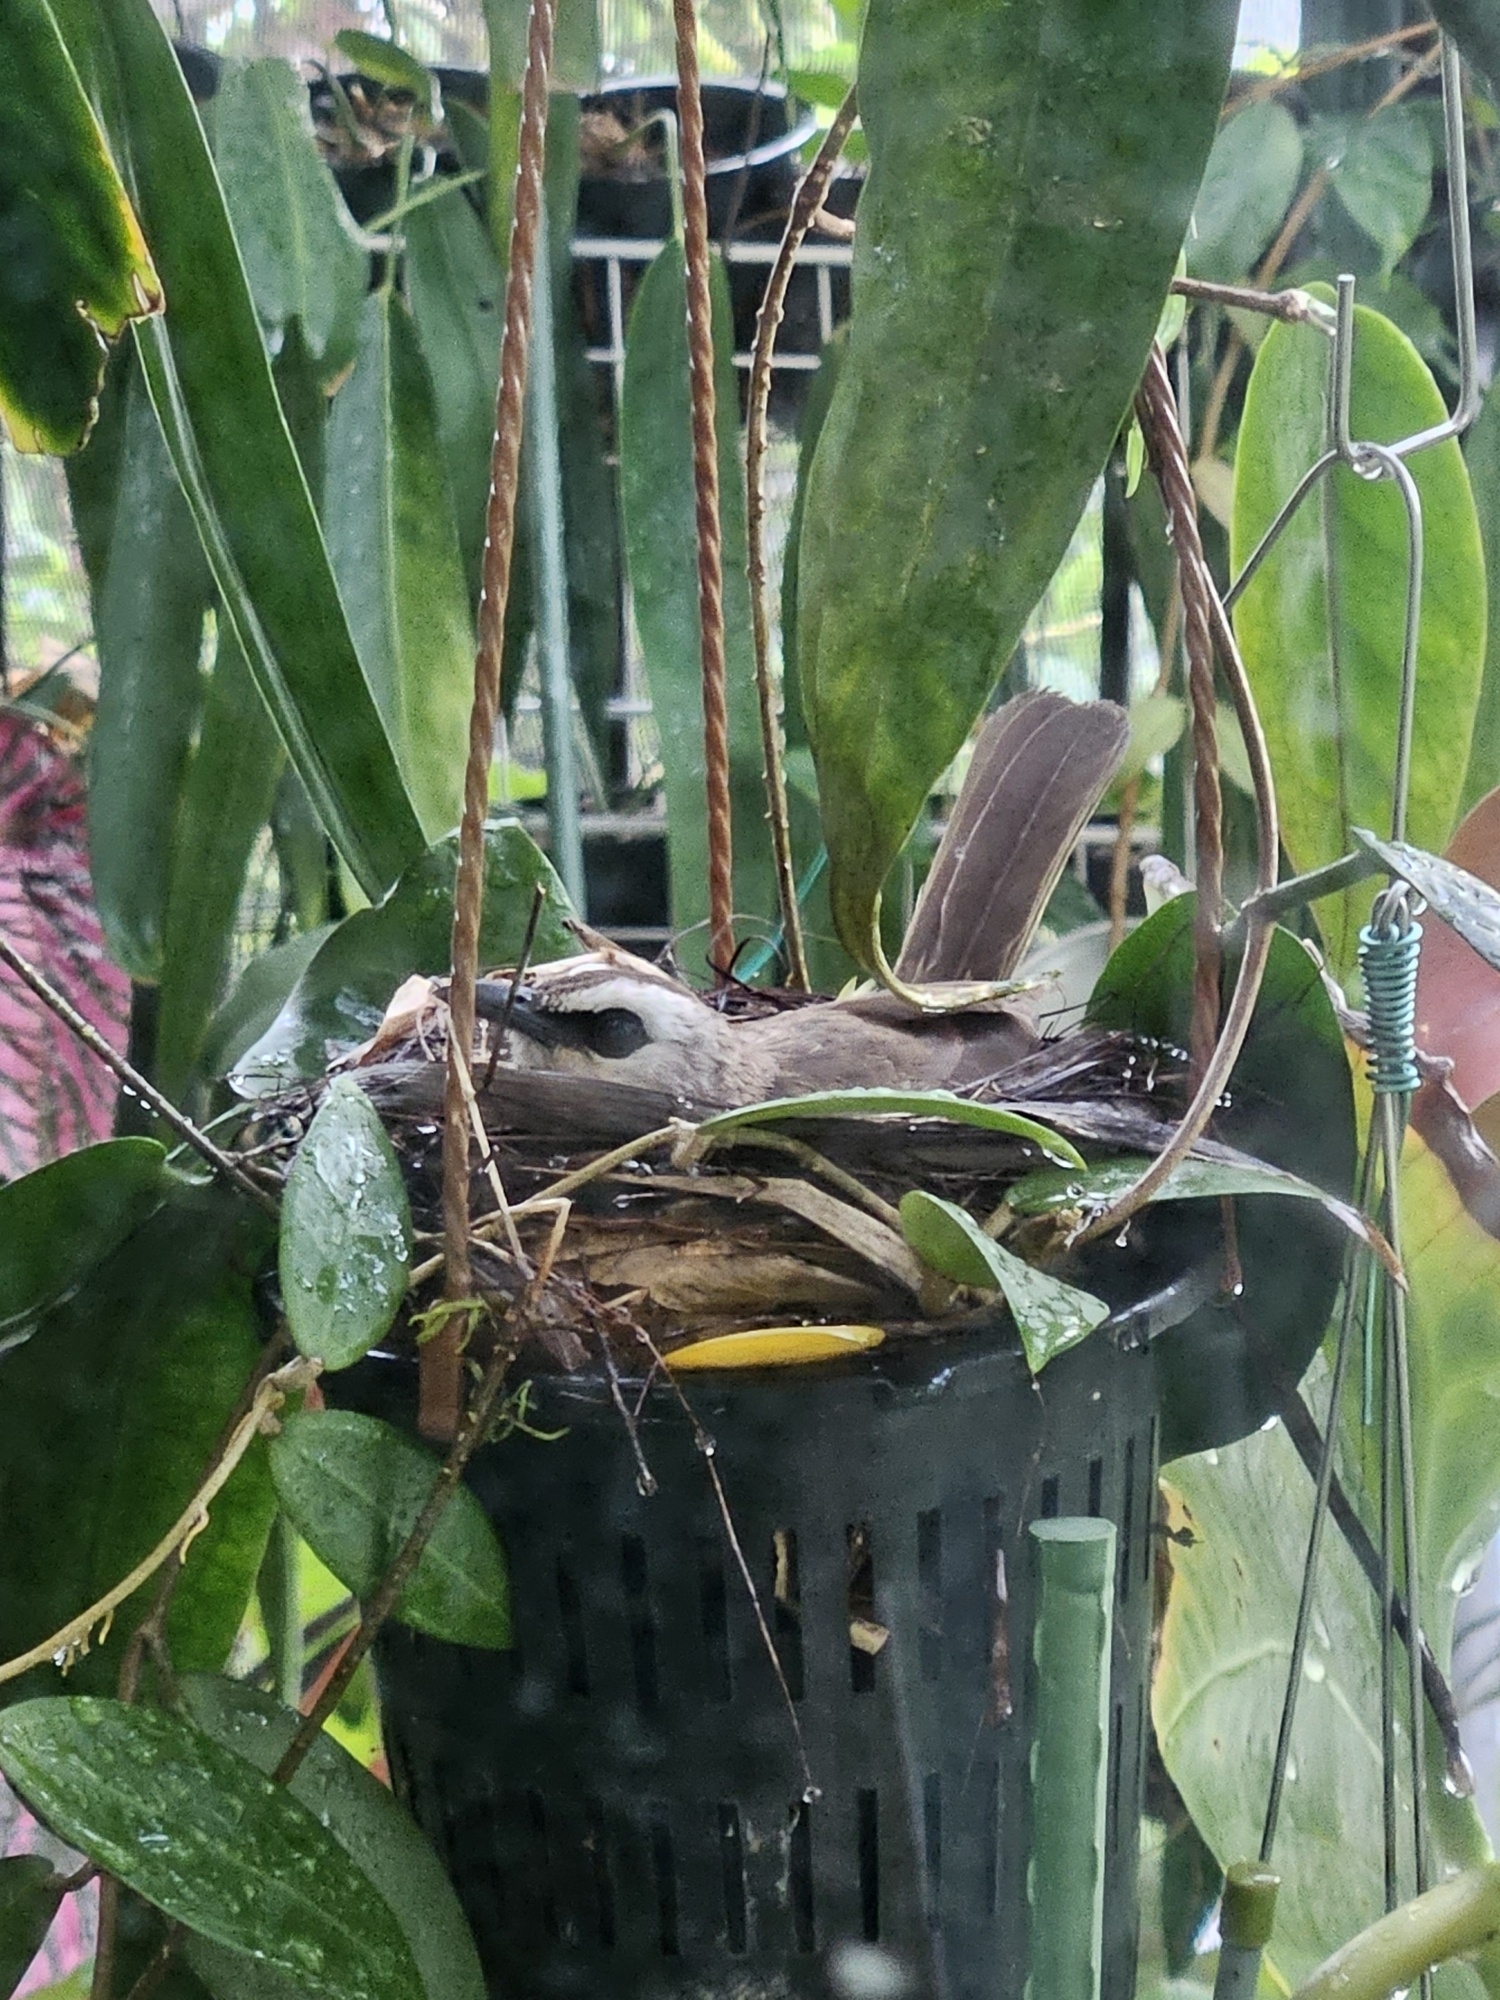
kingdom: Animalia
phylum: Chordata
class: Aves
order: Passeriformes
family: Pycnonotidae
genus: Pycnonotus
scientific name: Pycnonotus goiavier
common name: Yellow-vented bulbul
